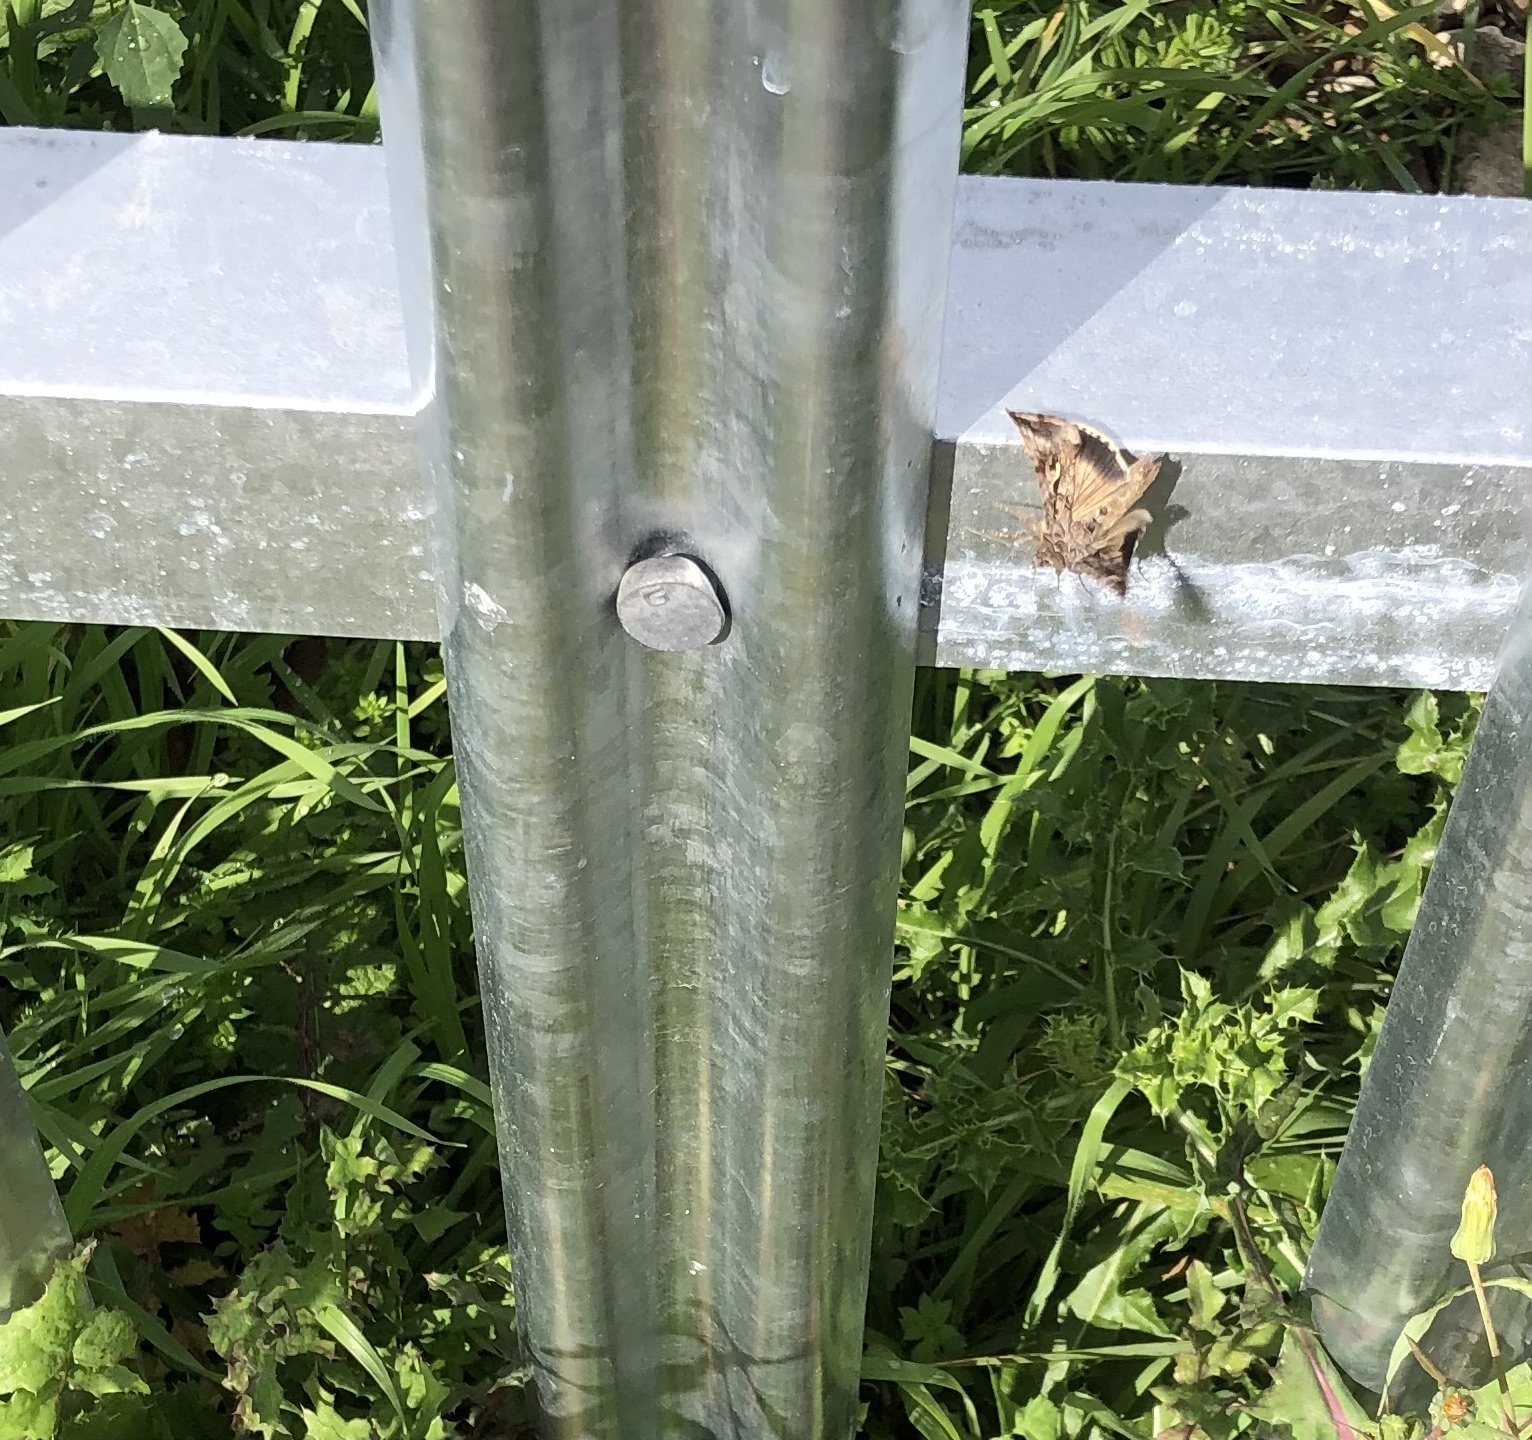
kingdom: Animalia
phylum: Arthropoda
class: Insecta
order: Lepidoptera
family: Noctuidae
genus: Autographa
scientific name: Autographa gamma
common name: Silver y
